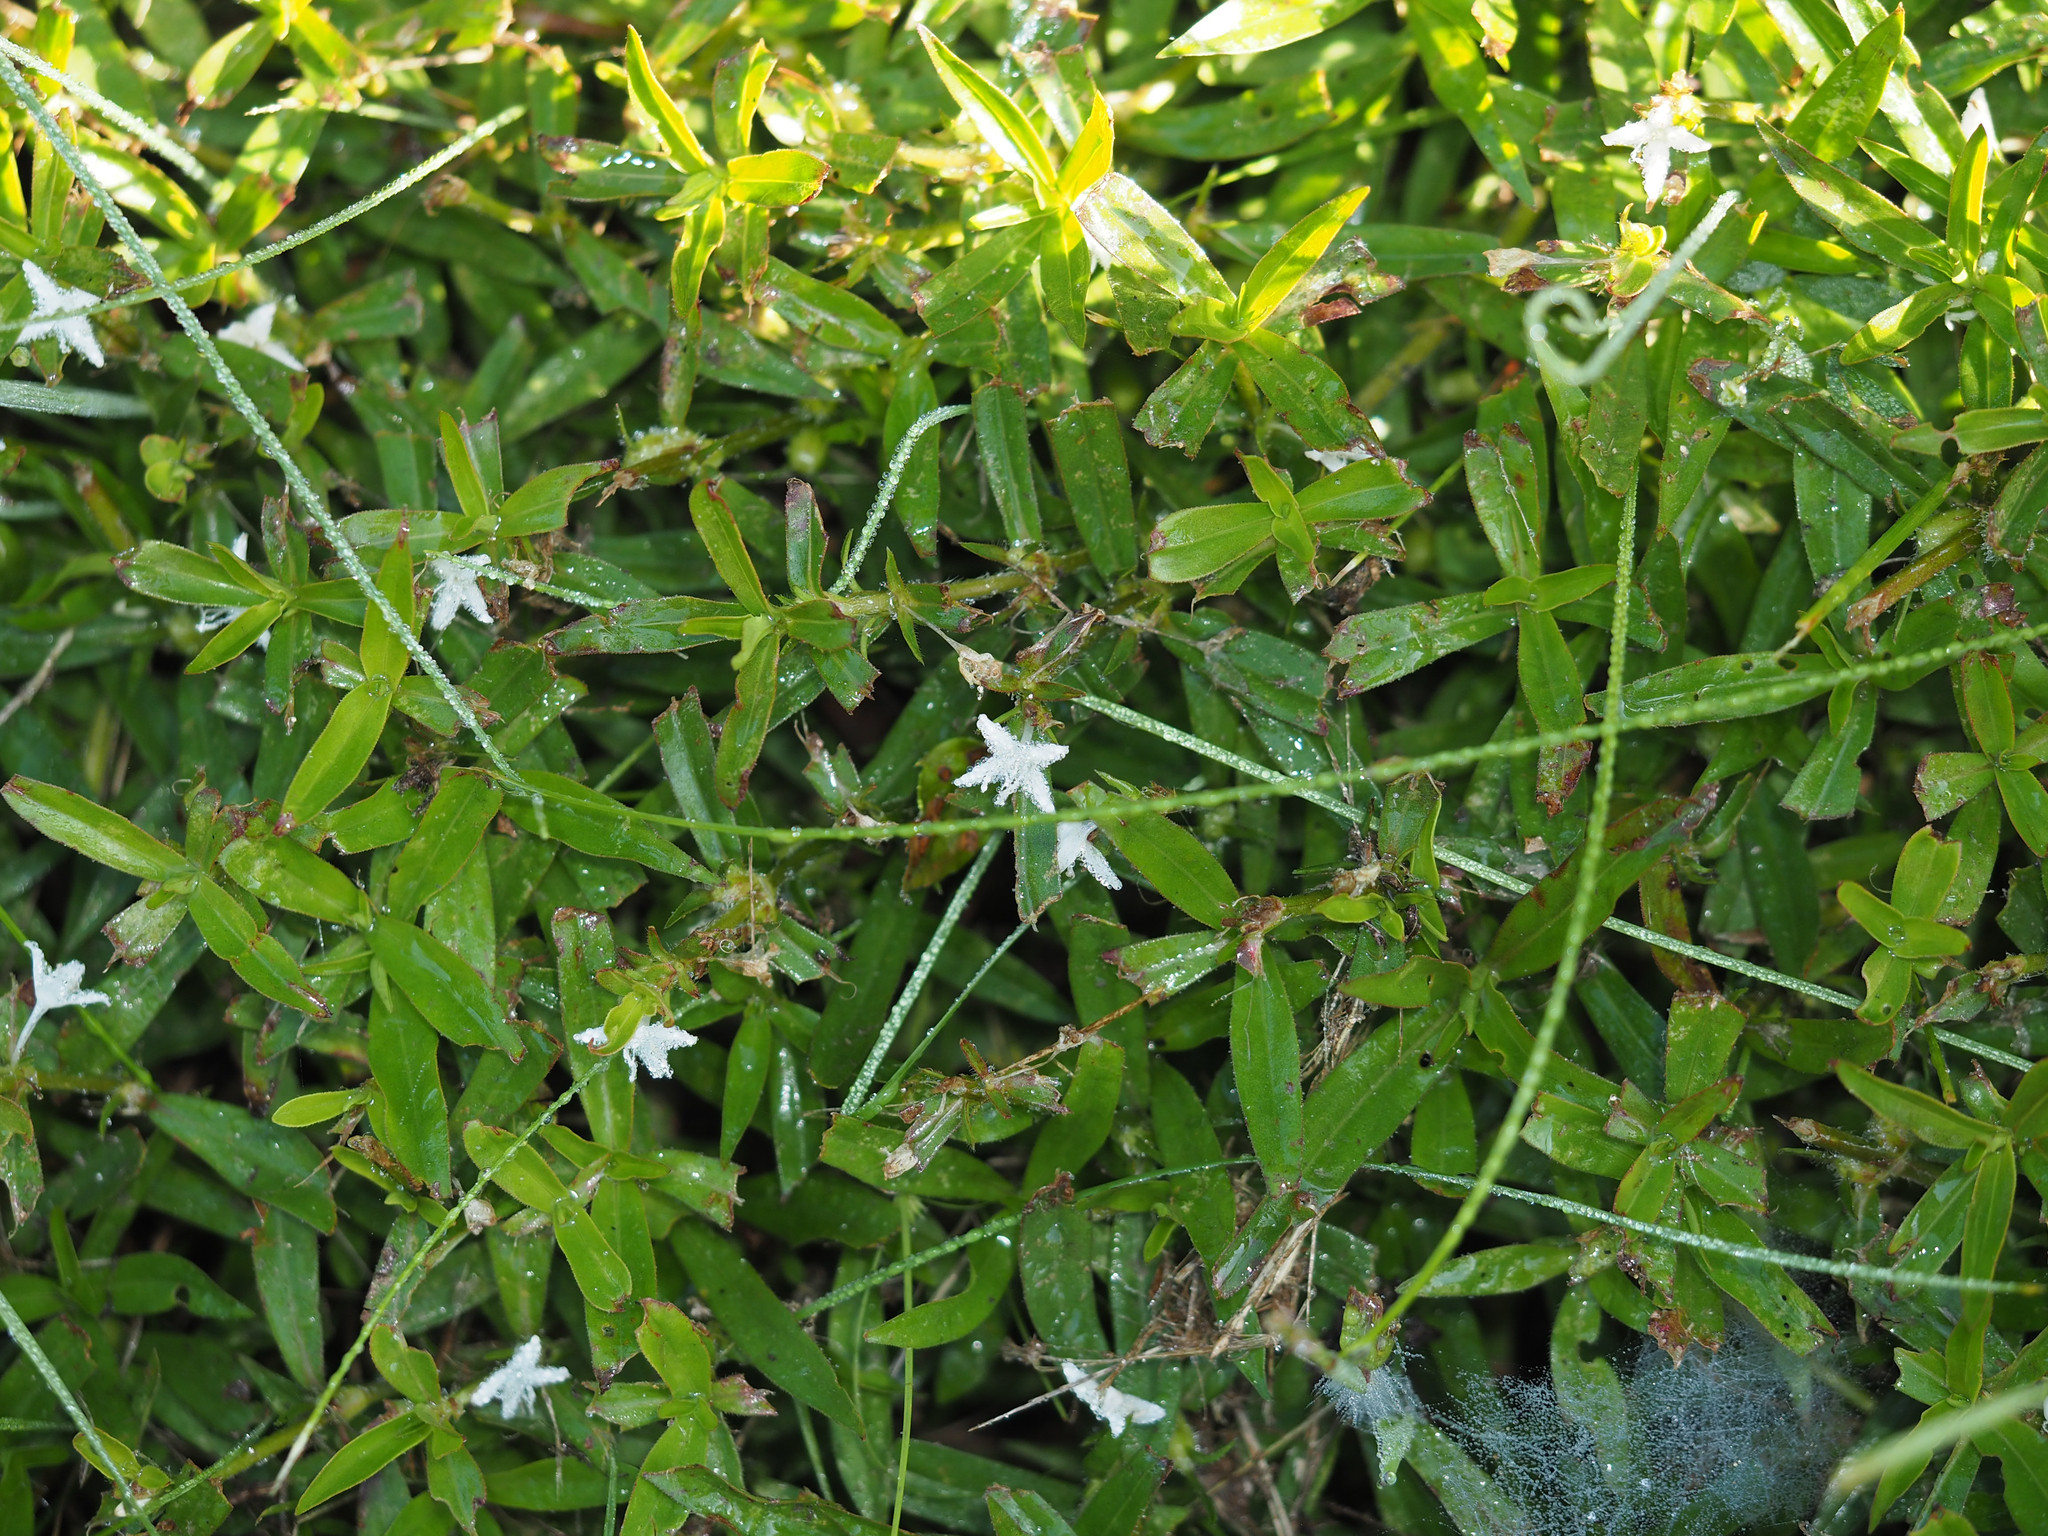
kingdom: Plantae
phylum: Tracheophyta
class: Magnoliopsida
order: Gentianales
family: Rubiaceae
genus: Diodia
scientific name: Diodia virginiana
